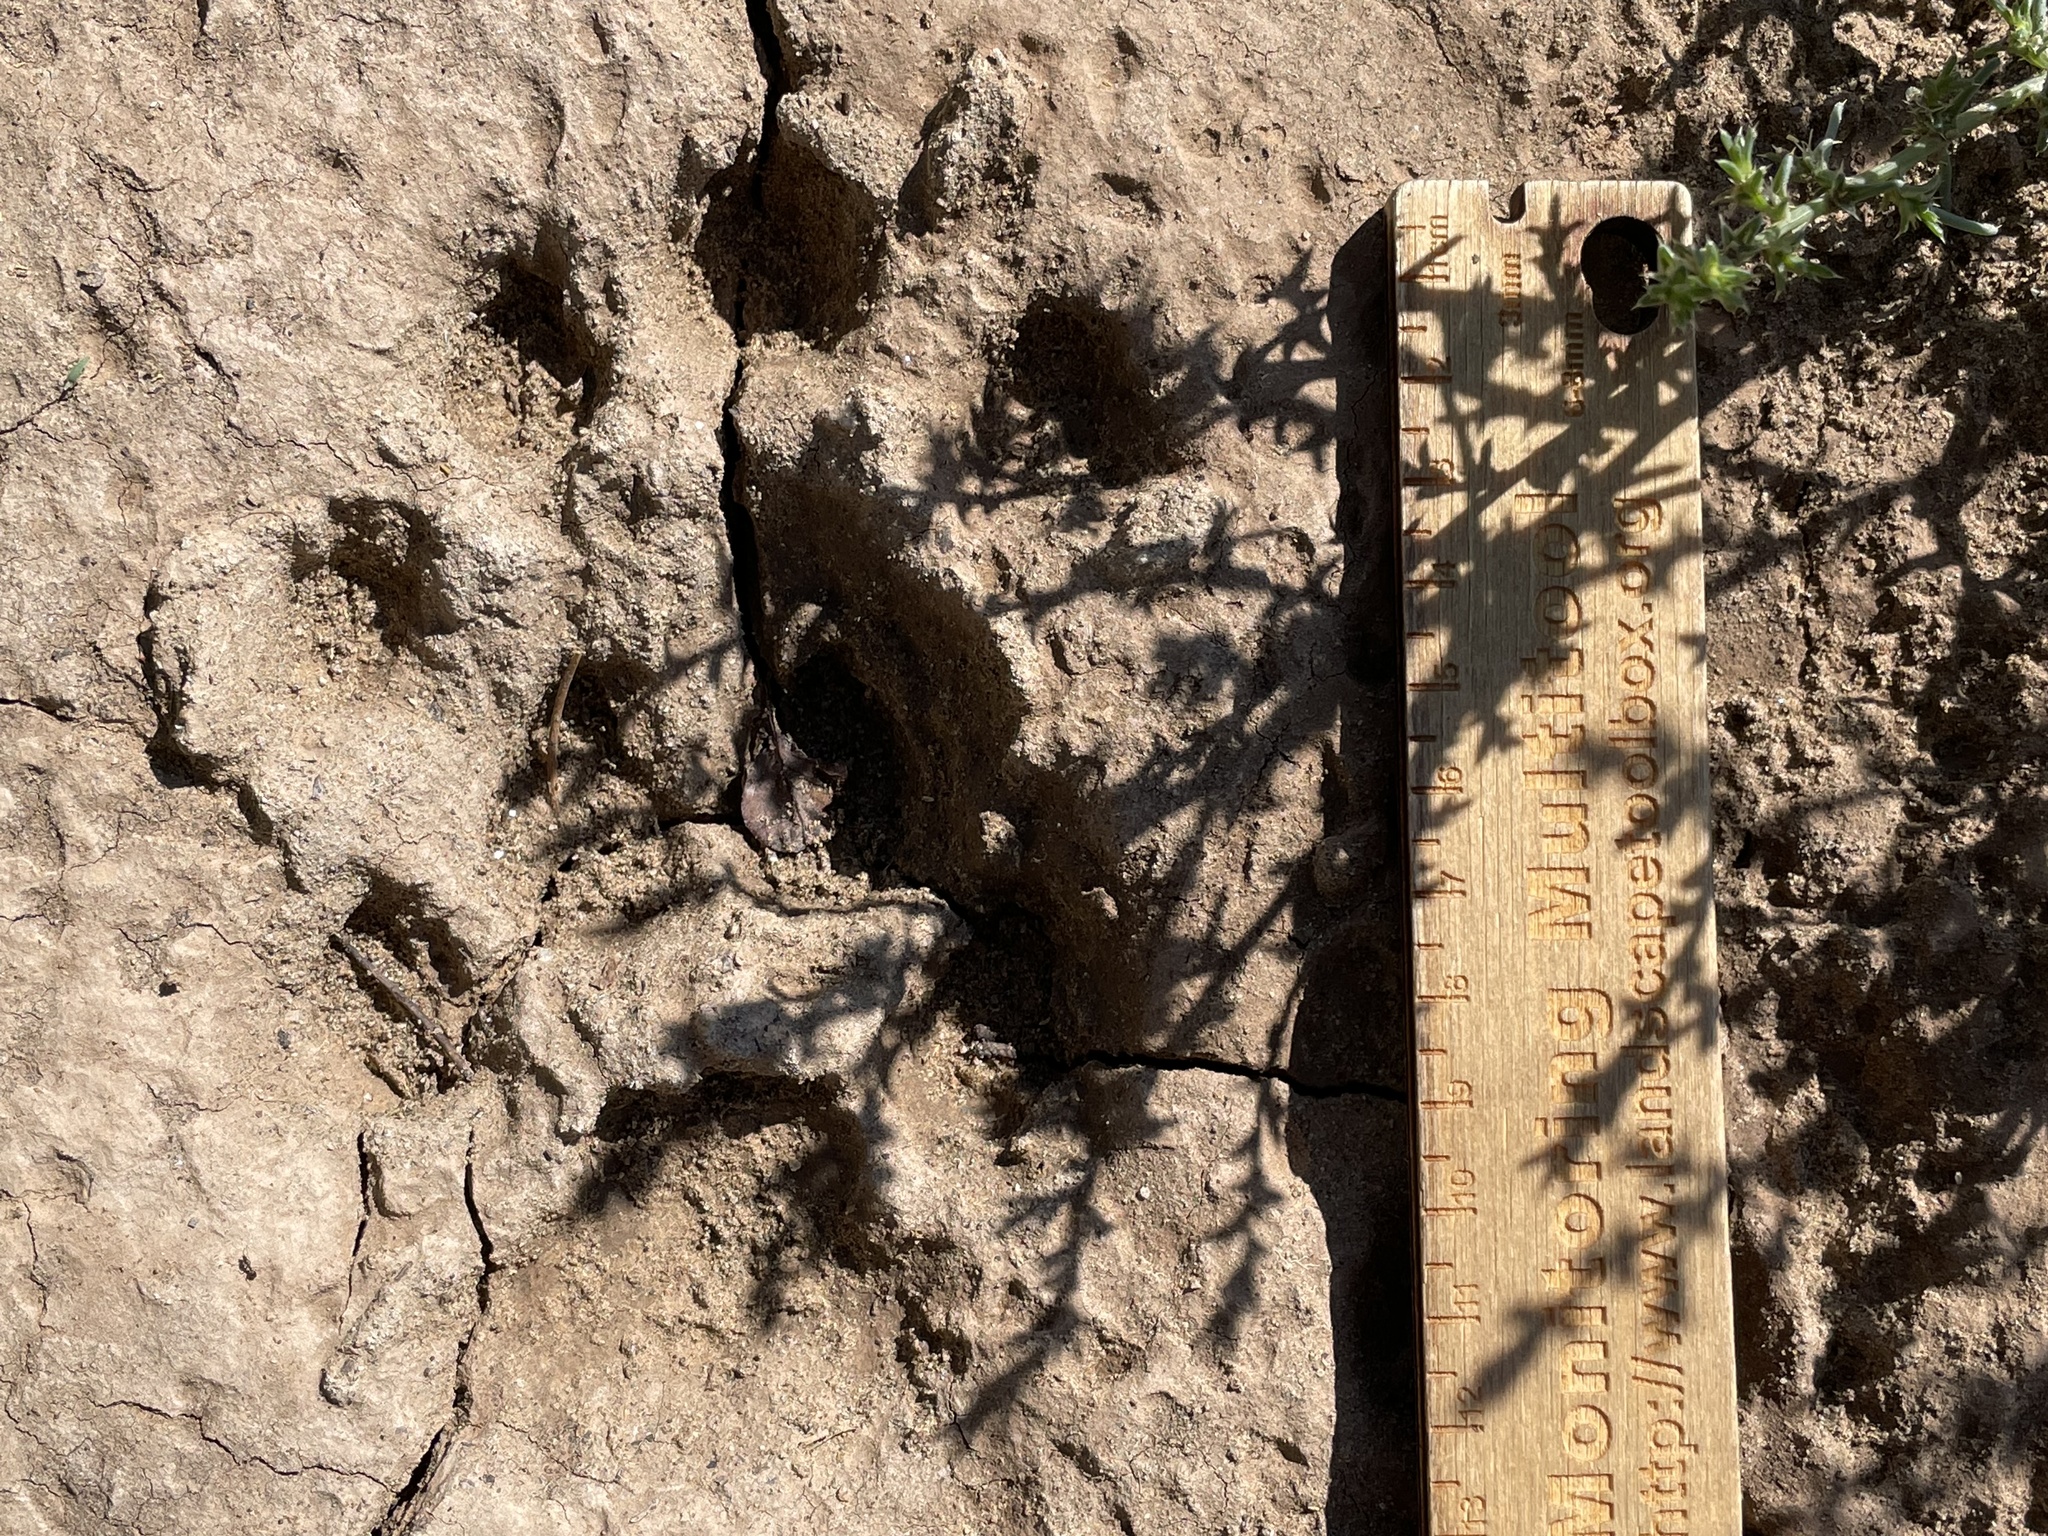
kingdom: Animalia
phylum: Chordata
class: Mammalia
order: Carnivora
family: Felidae
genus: Lynx
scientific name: Lynx rufus
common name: Bobcat
